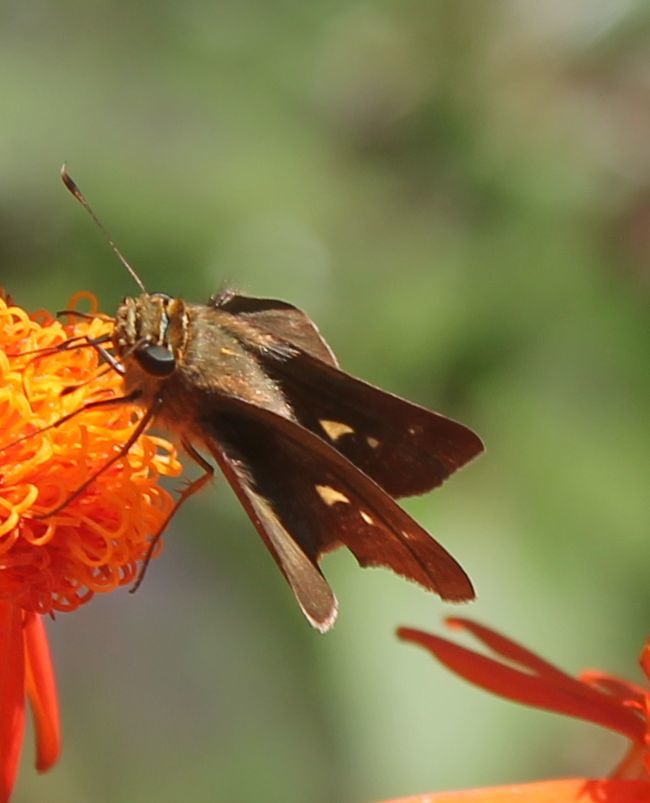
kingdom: Animalia
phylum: Arthropoda
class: Insecta
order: Lepidoptera
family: Hesperiidae
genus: Panoquina
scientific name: Panoquina ocola
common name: Ocola skipper
